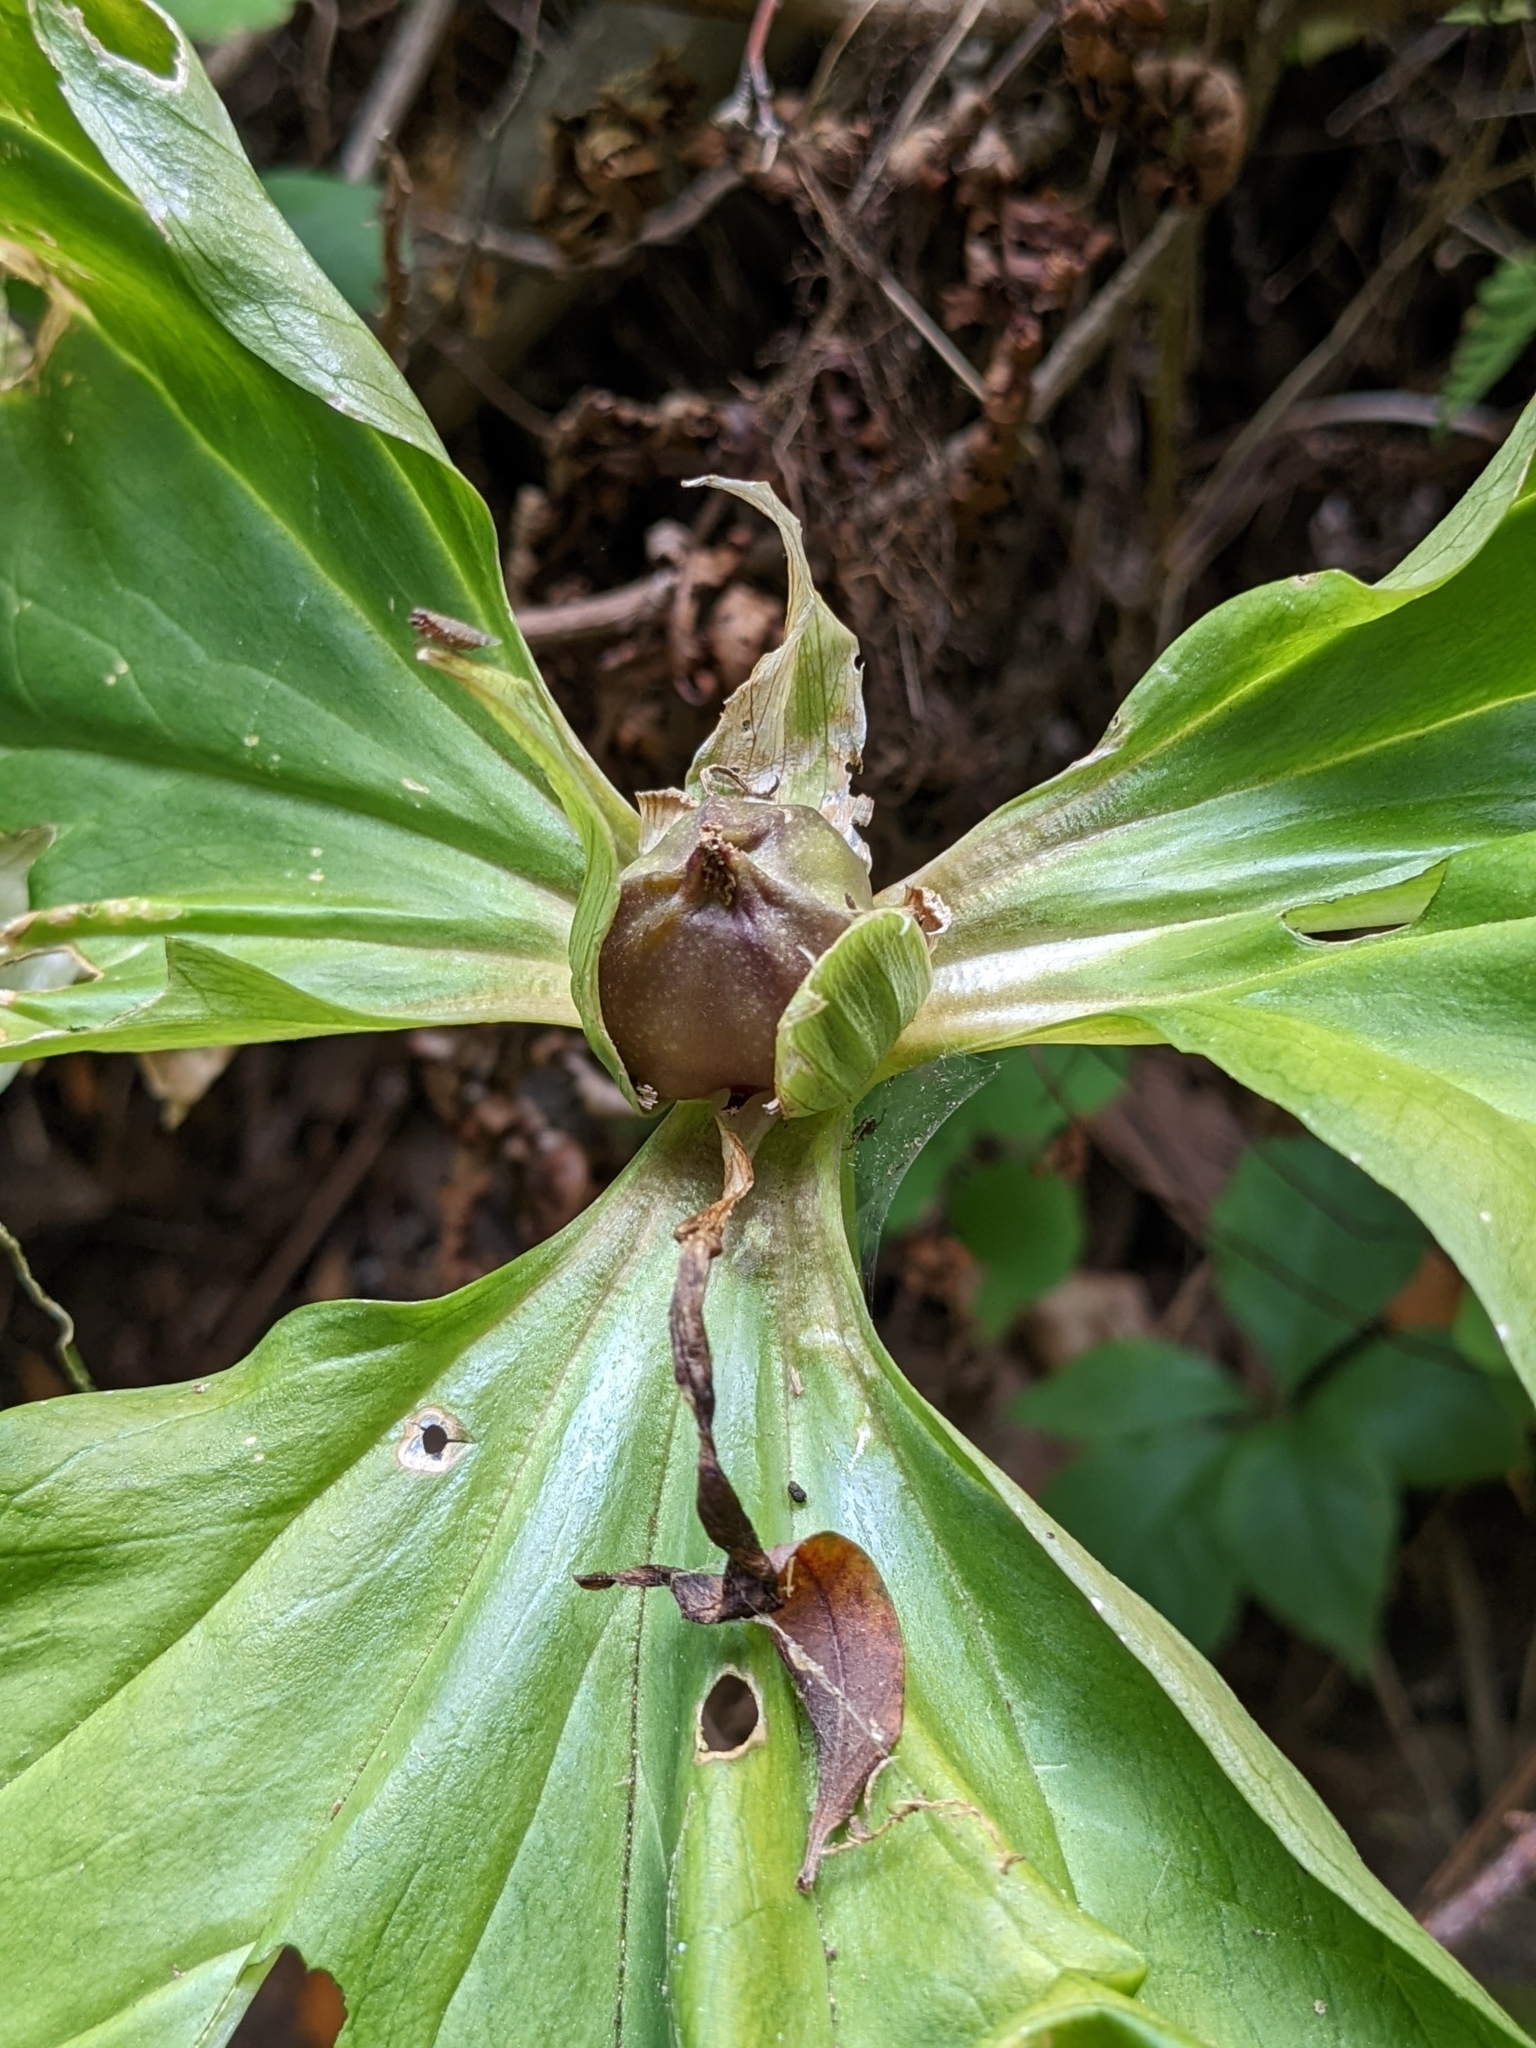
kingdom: Plantae
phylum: Tracheophyta
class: Liliopsida
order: Liliales
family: Melanthiaceae
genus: Trillium
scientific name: Trillium chloropetalum
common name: Giant trillium
